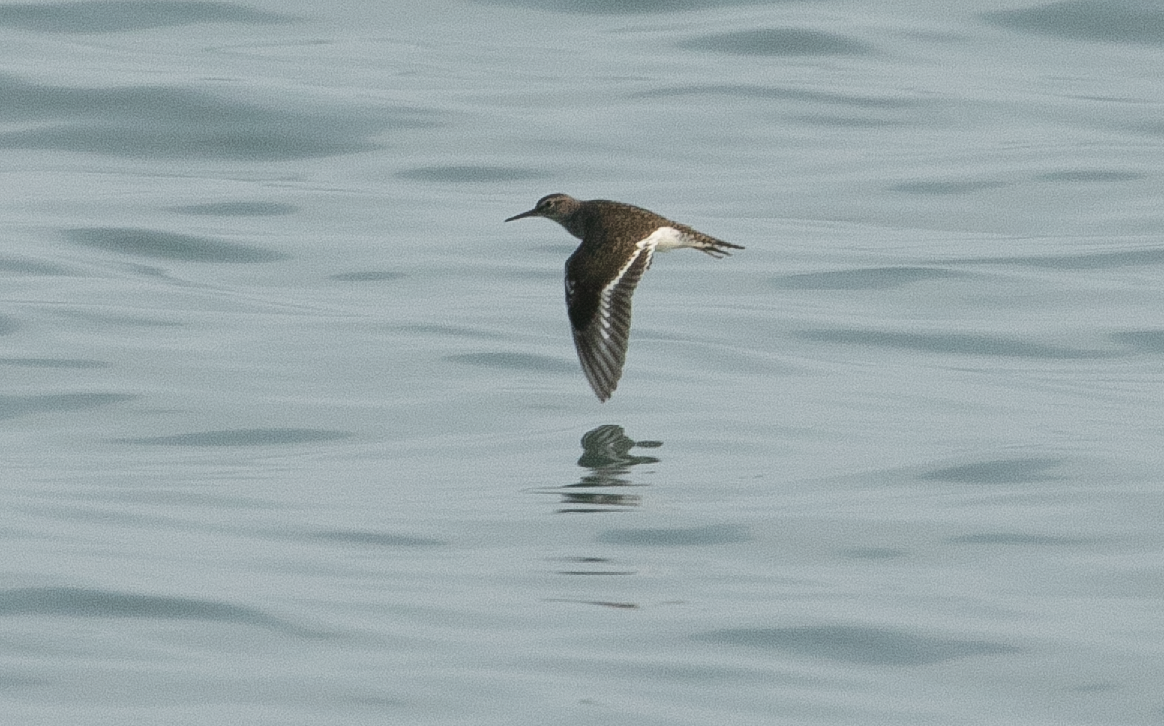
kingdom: Animalia
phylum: Chordata
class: Aves
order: Charadriiformes
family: Scolopacidae
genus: Actitis
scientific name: Actitis hypoleucos
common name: Common sandpiper
